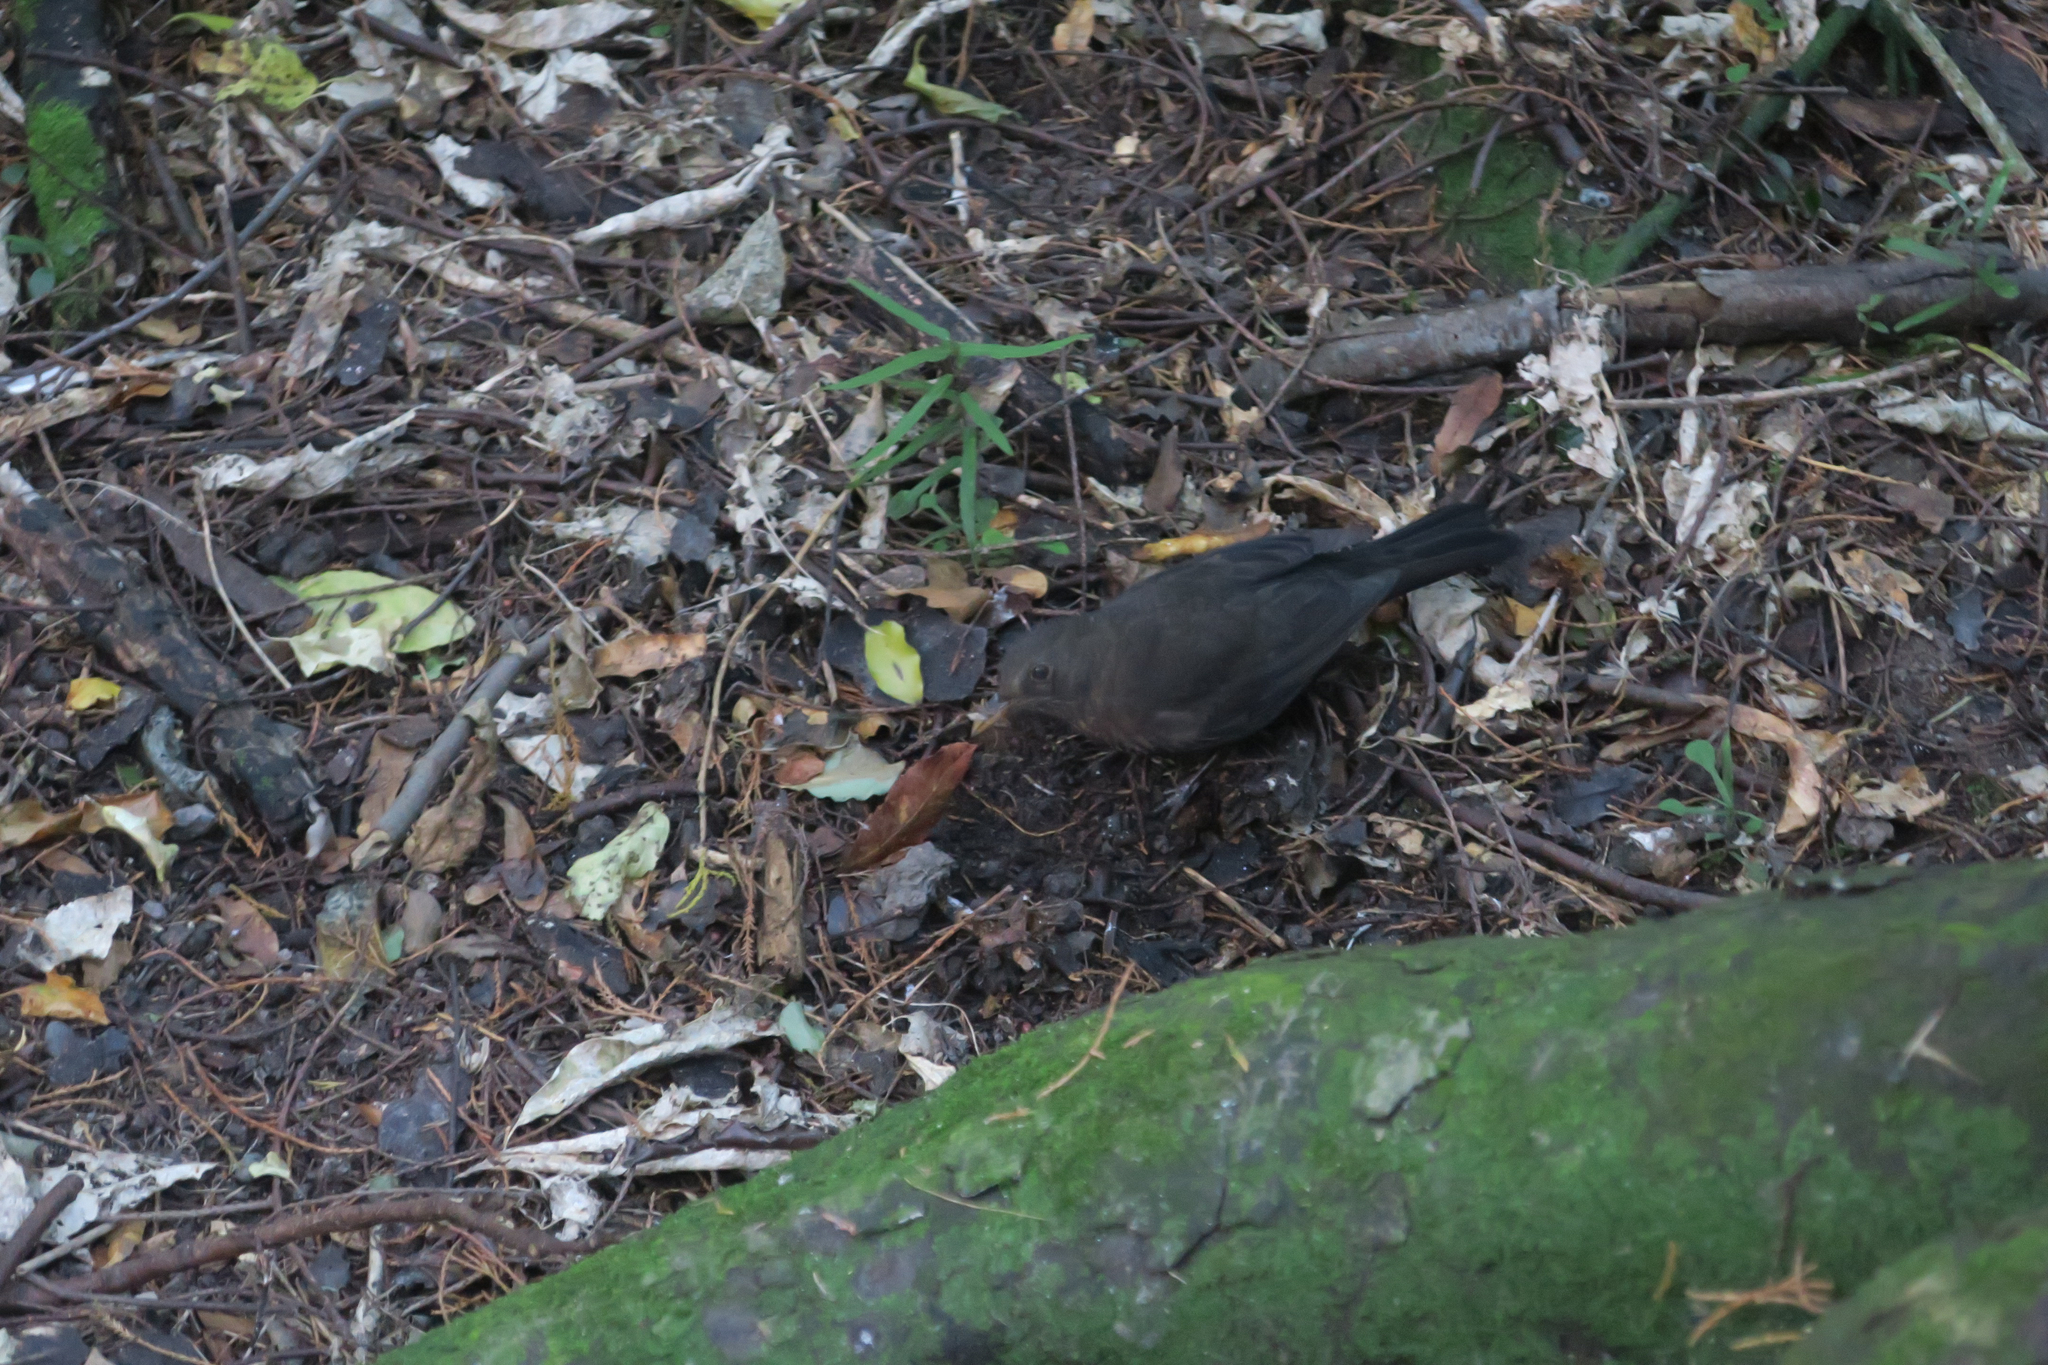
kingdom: Animalia
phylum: Chordata
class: Aves
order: Passeriformes
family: Turdidae
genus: Turdus
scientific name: Turdus merula
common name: Common blackbird
